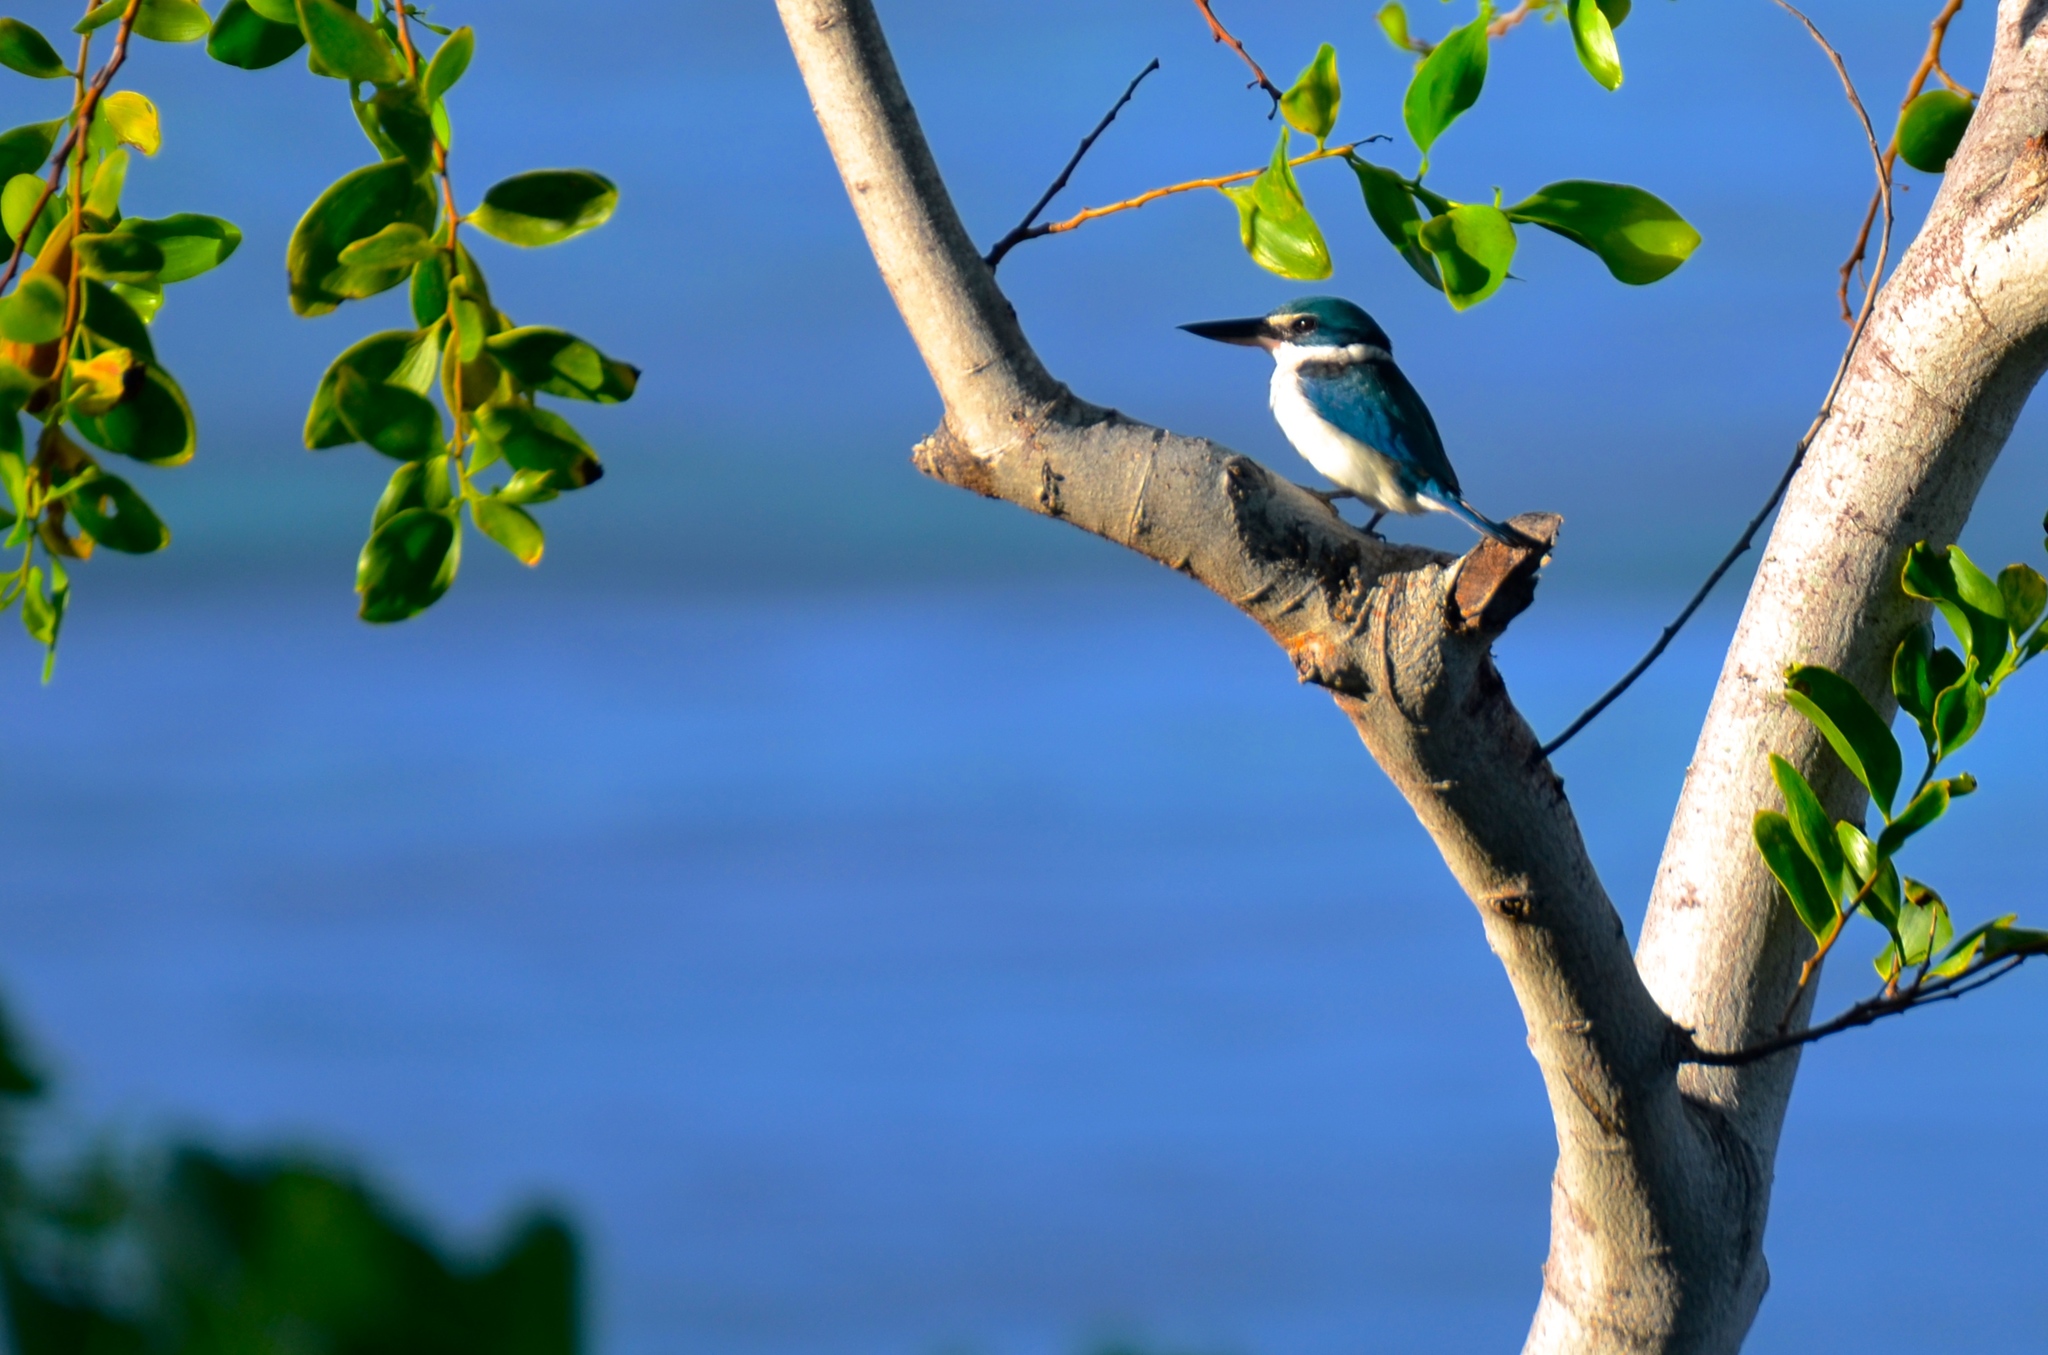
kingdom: Animalia
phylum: Chordata
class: Aves
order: Coraciiformes
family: Alcedinidae
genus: Todiramphus
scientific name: Todiramphus sacer
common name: Pacific kingfisher
